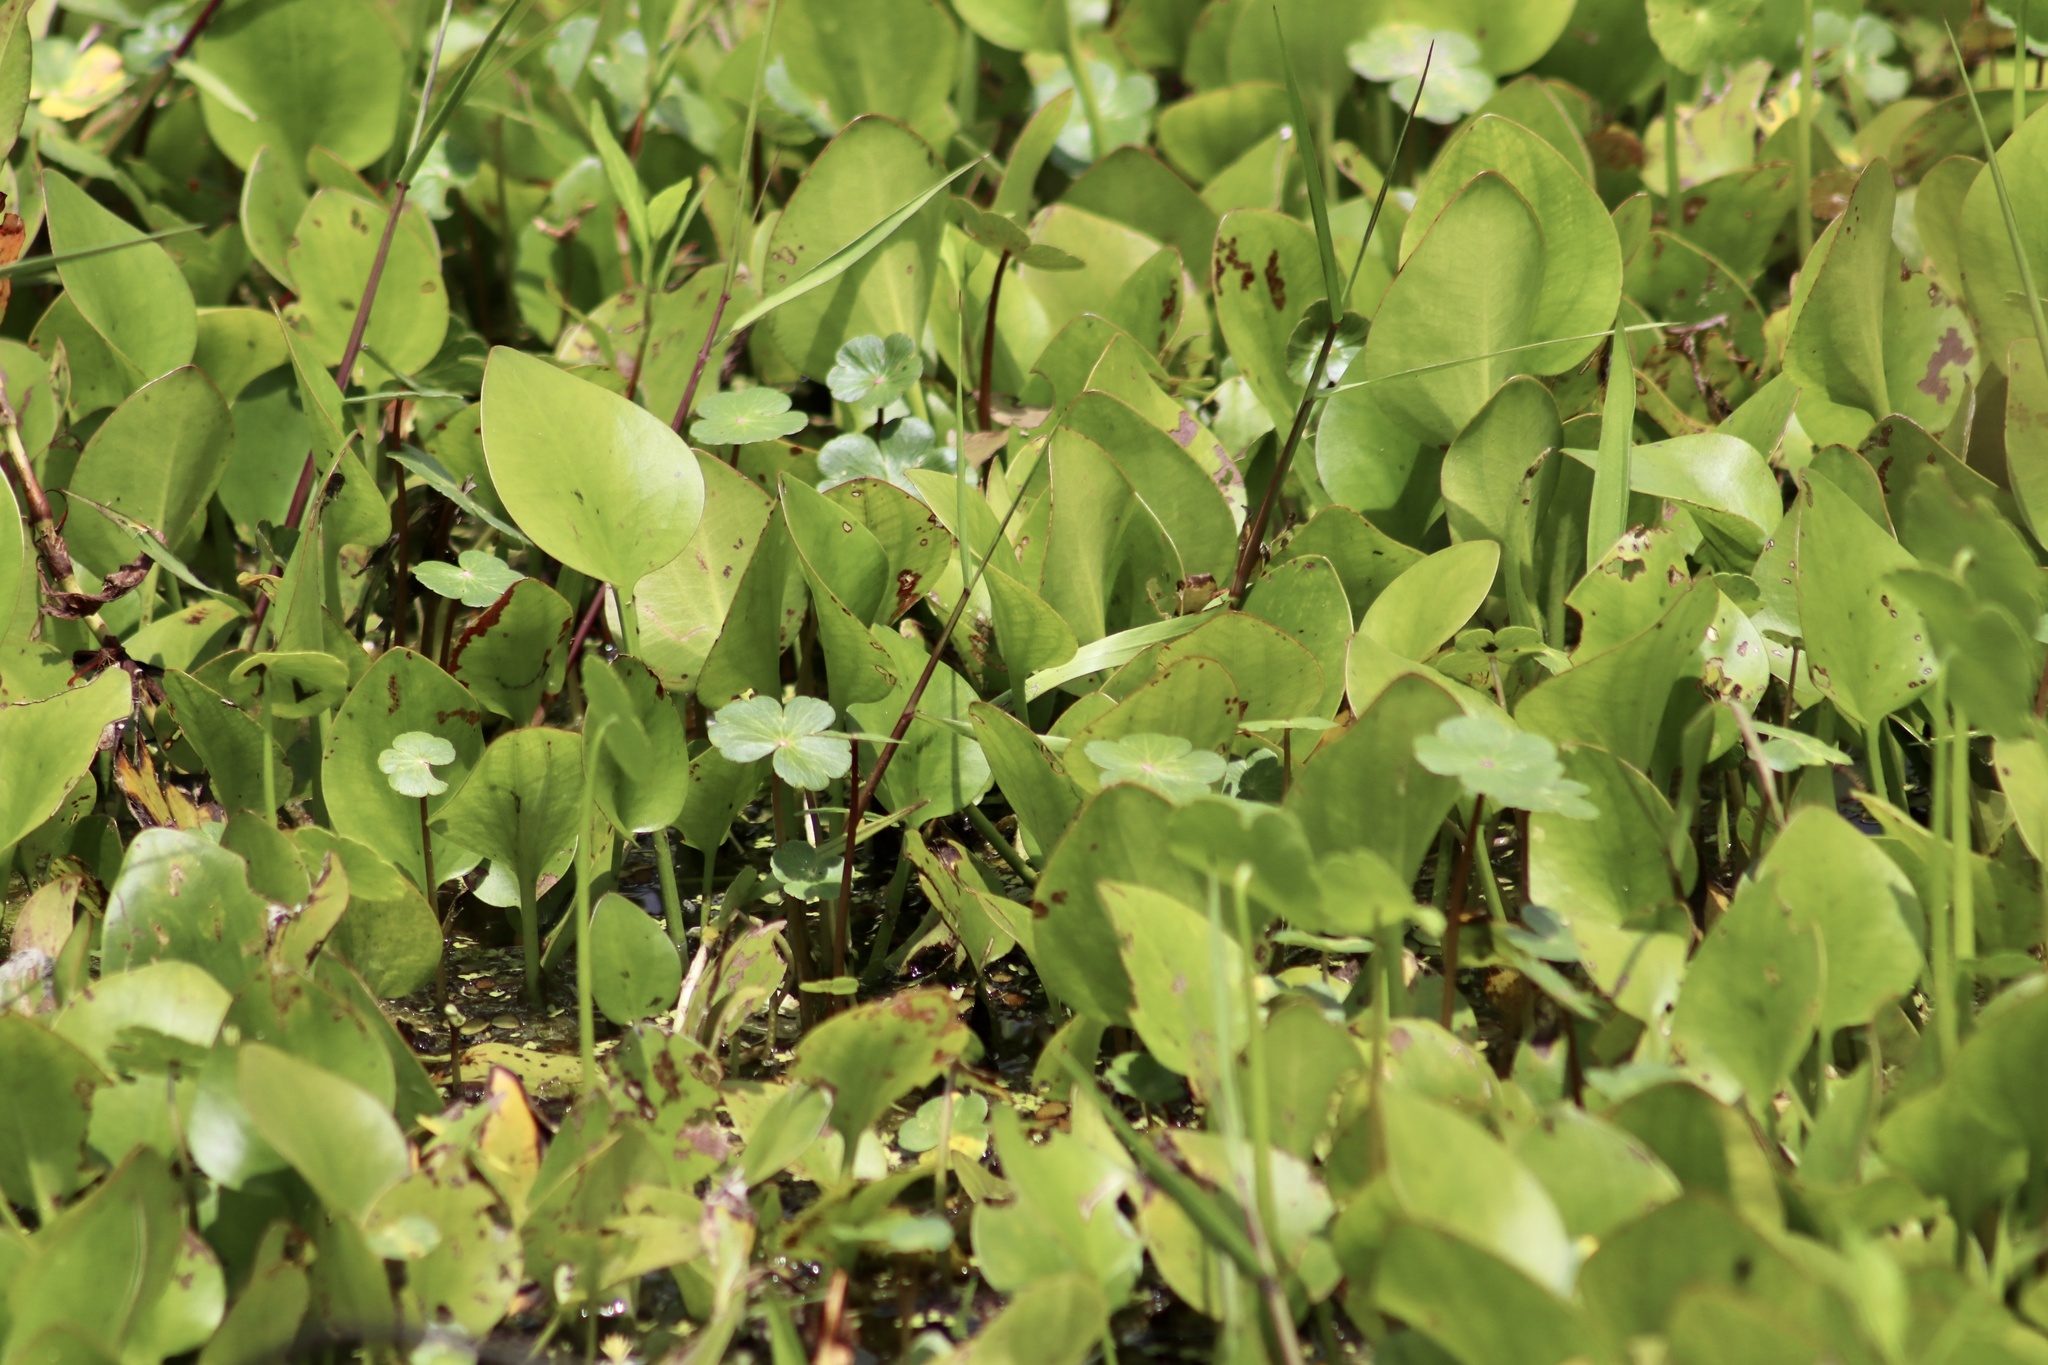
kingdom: Plantae
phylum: Tracheophyta
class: Liliopsida
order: Alismatales
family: Hydrocharitaceae
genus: Hydrocharis
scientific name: Hydrocharis spongia
